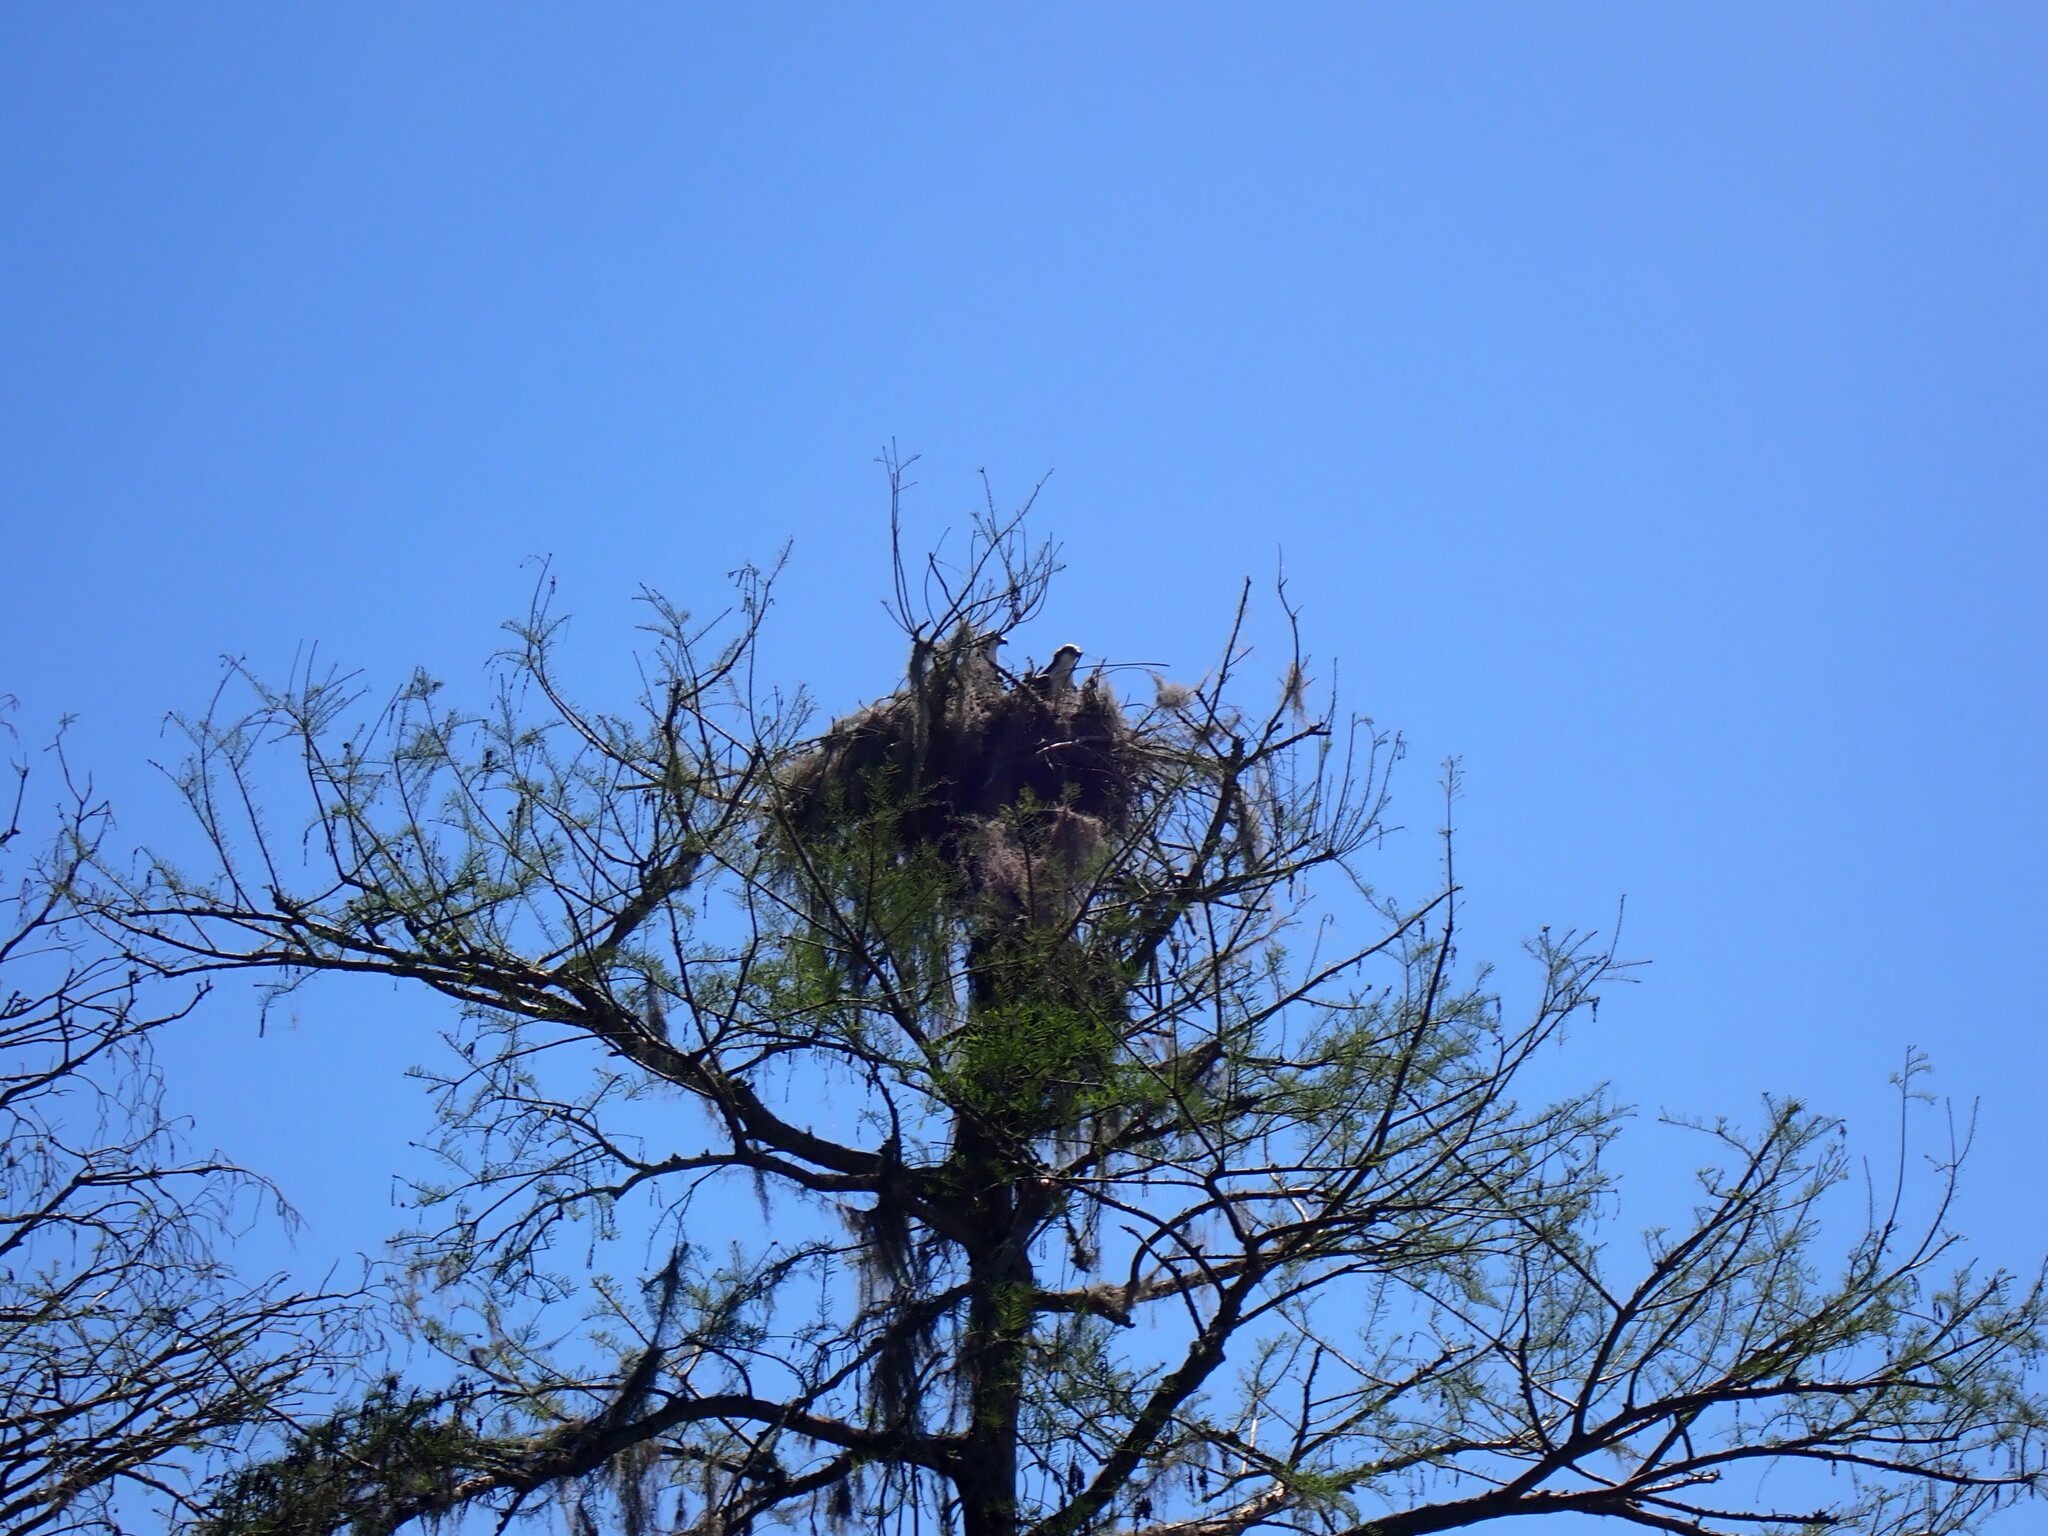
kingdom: Animalia
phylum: Chordata
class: Aves
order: Accipitriformes
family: Pandionidae
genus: Pandion
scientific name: Pandion haliaetus
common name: Osprey
